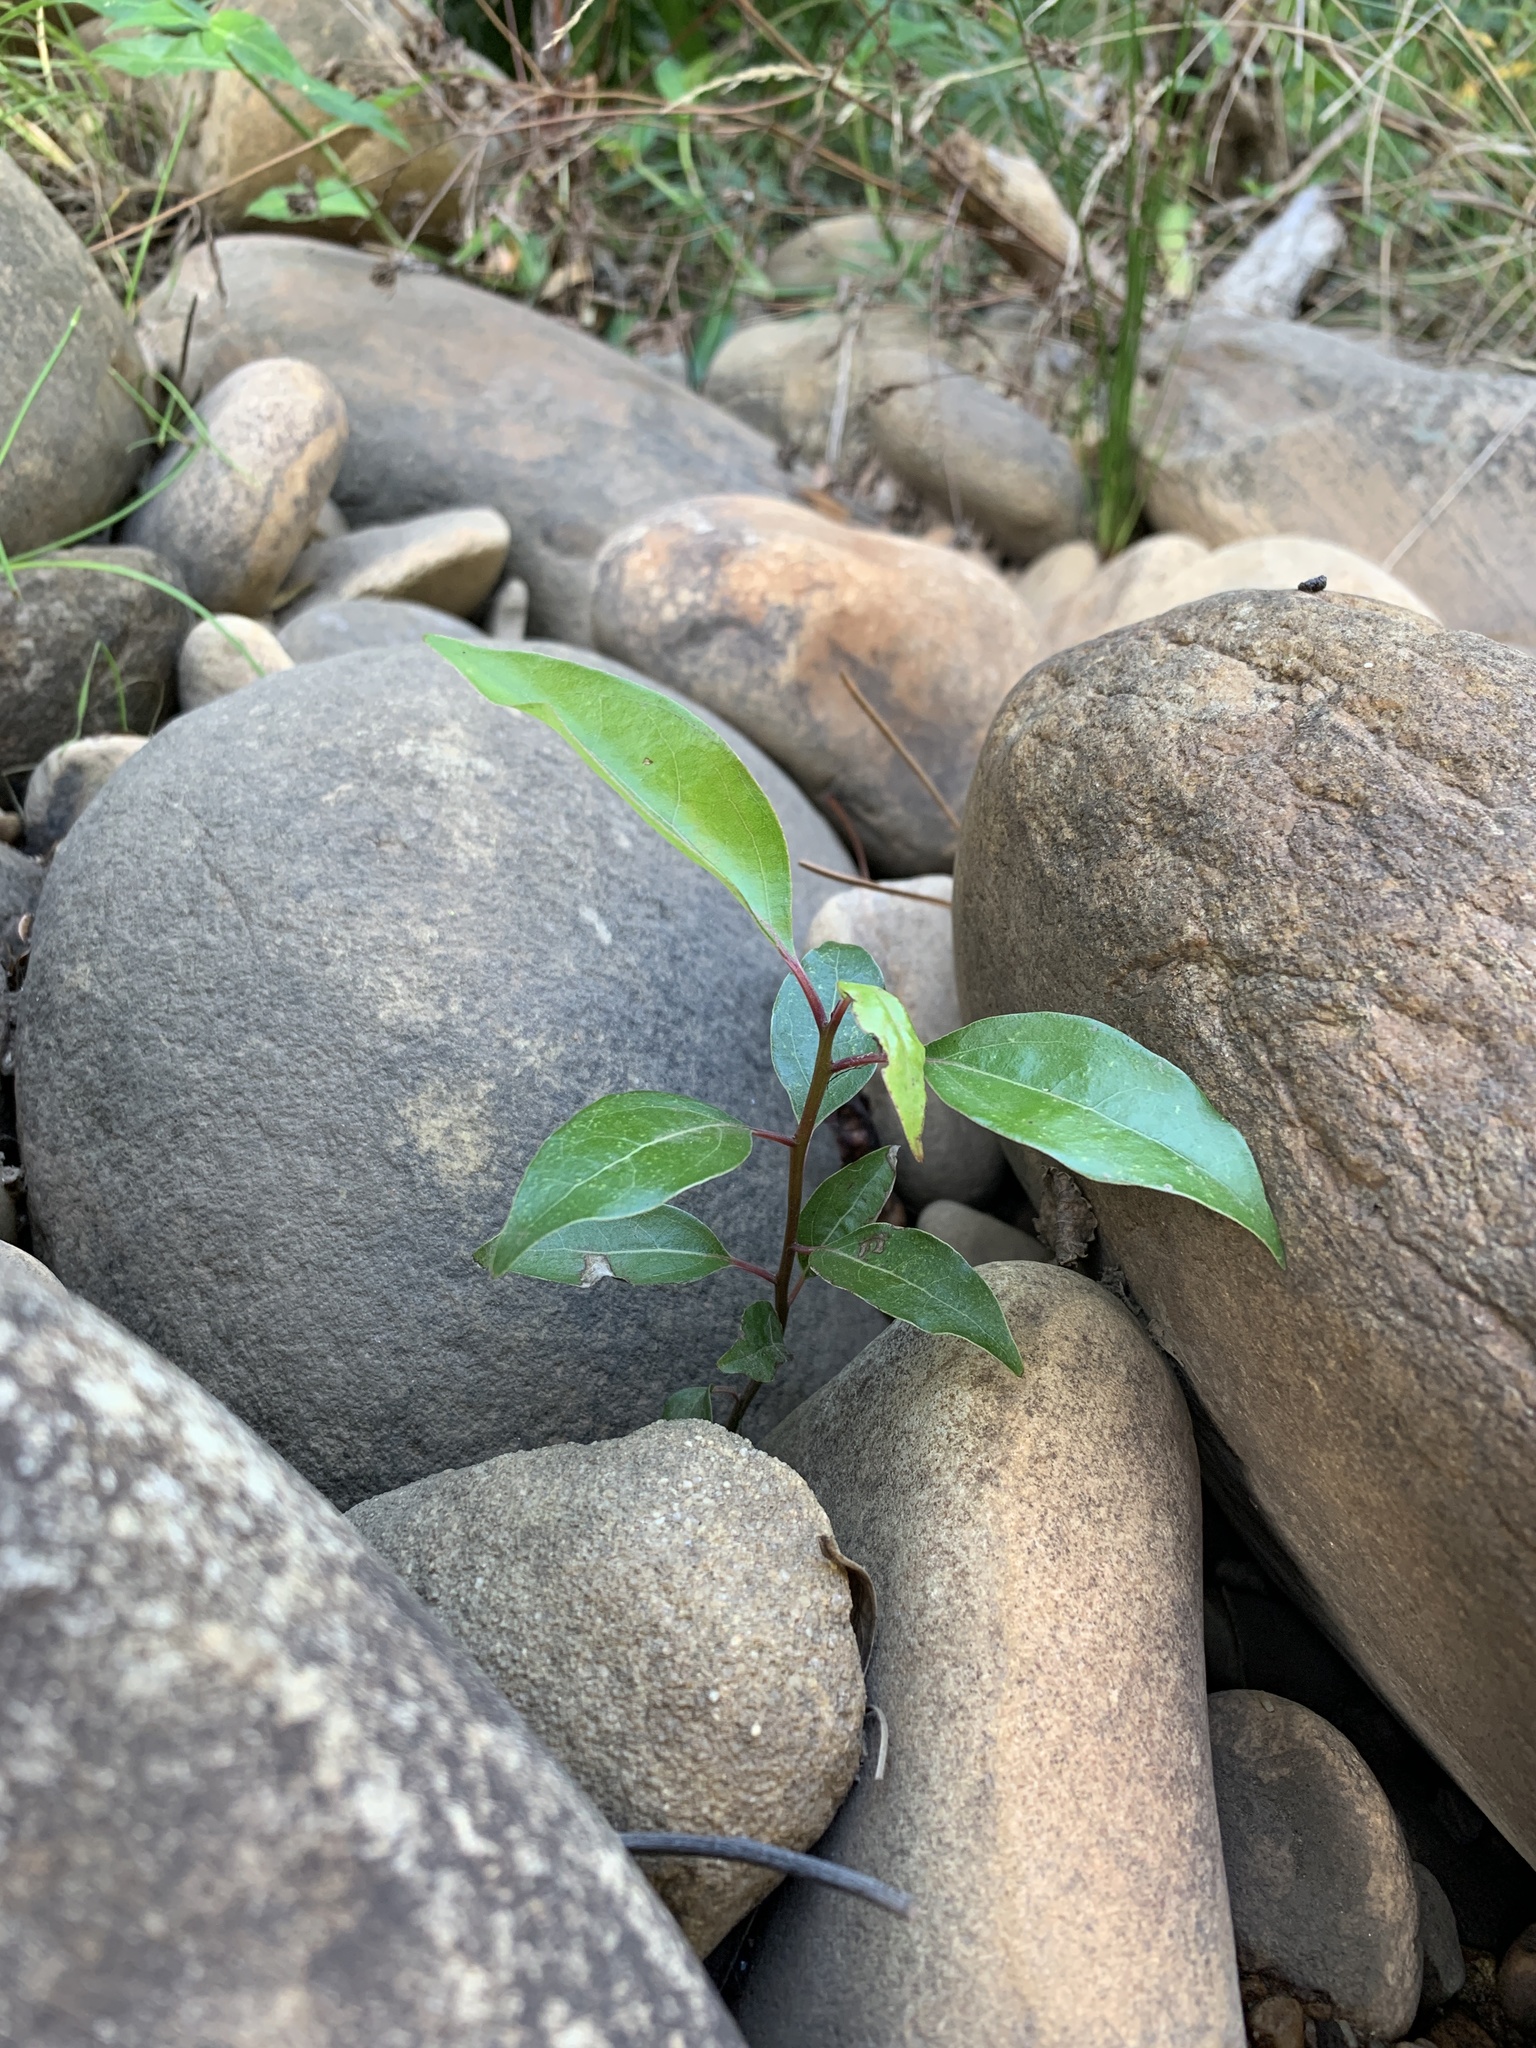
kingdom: Plantae
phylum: Tracheophyta
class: Magnoliopsida
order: Myrtales
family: Myrtaceae
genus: Syzygium
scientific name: Syzygium australe
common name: Australian brush-cherry
